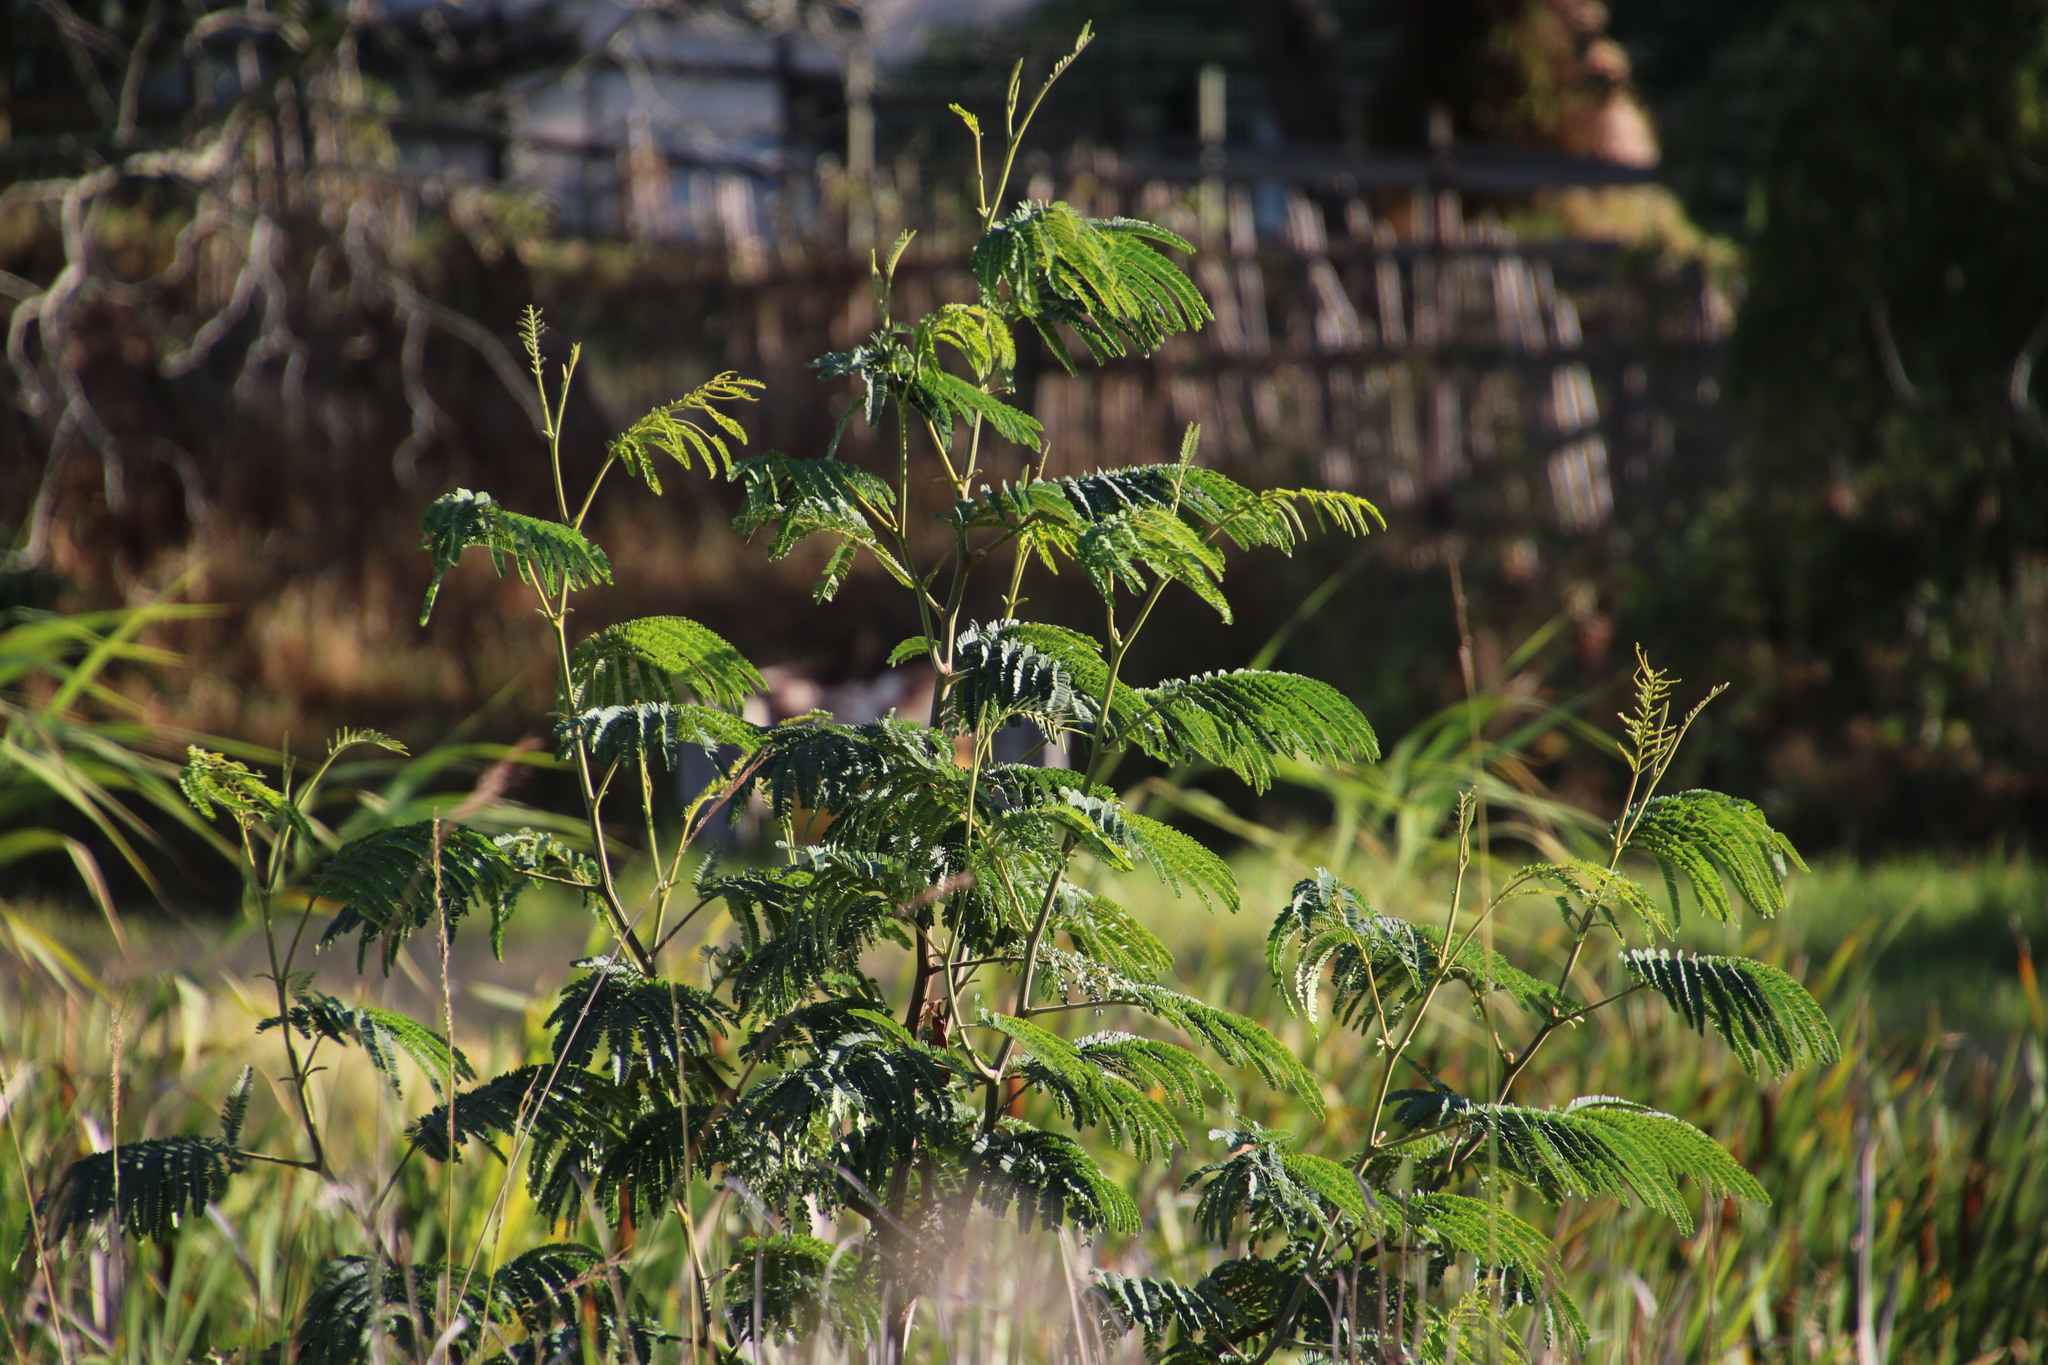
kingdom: Plantae
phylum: Tracheophyta
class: Magnoliopsida
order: Fabales
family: Fabaceae
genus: Paraserianthes
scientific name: Paraserianthes lophantha
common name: Plume albizia
